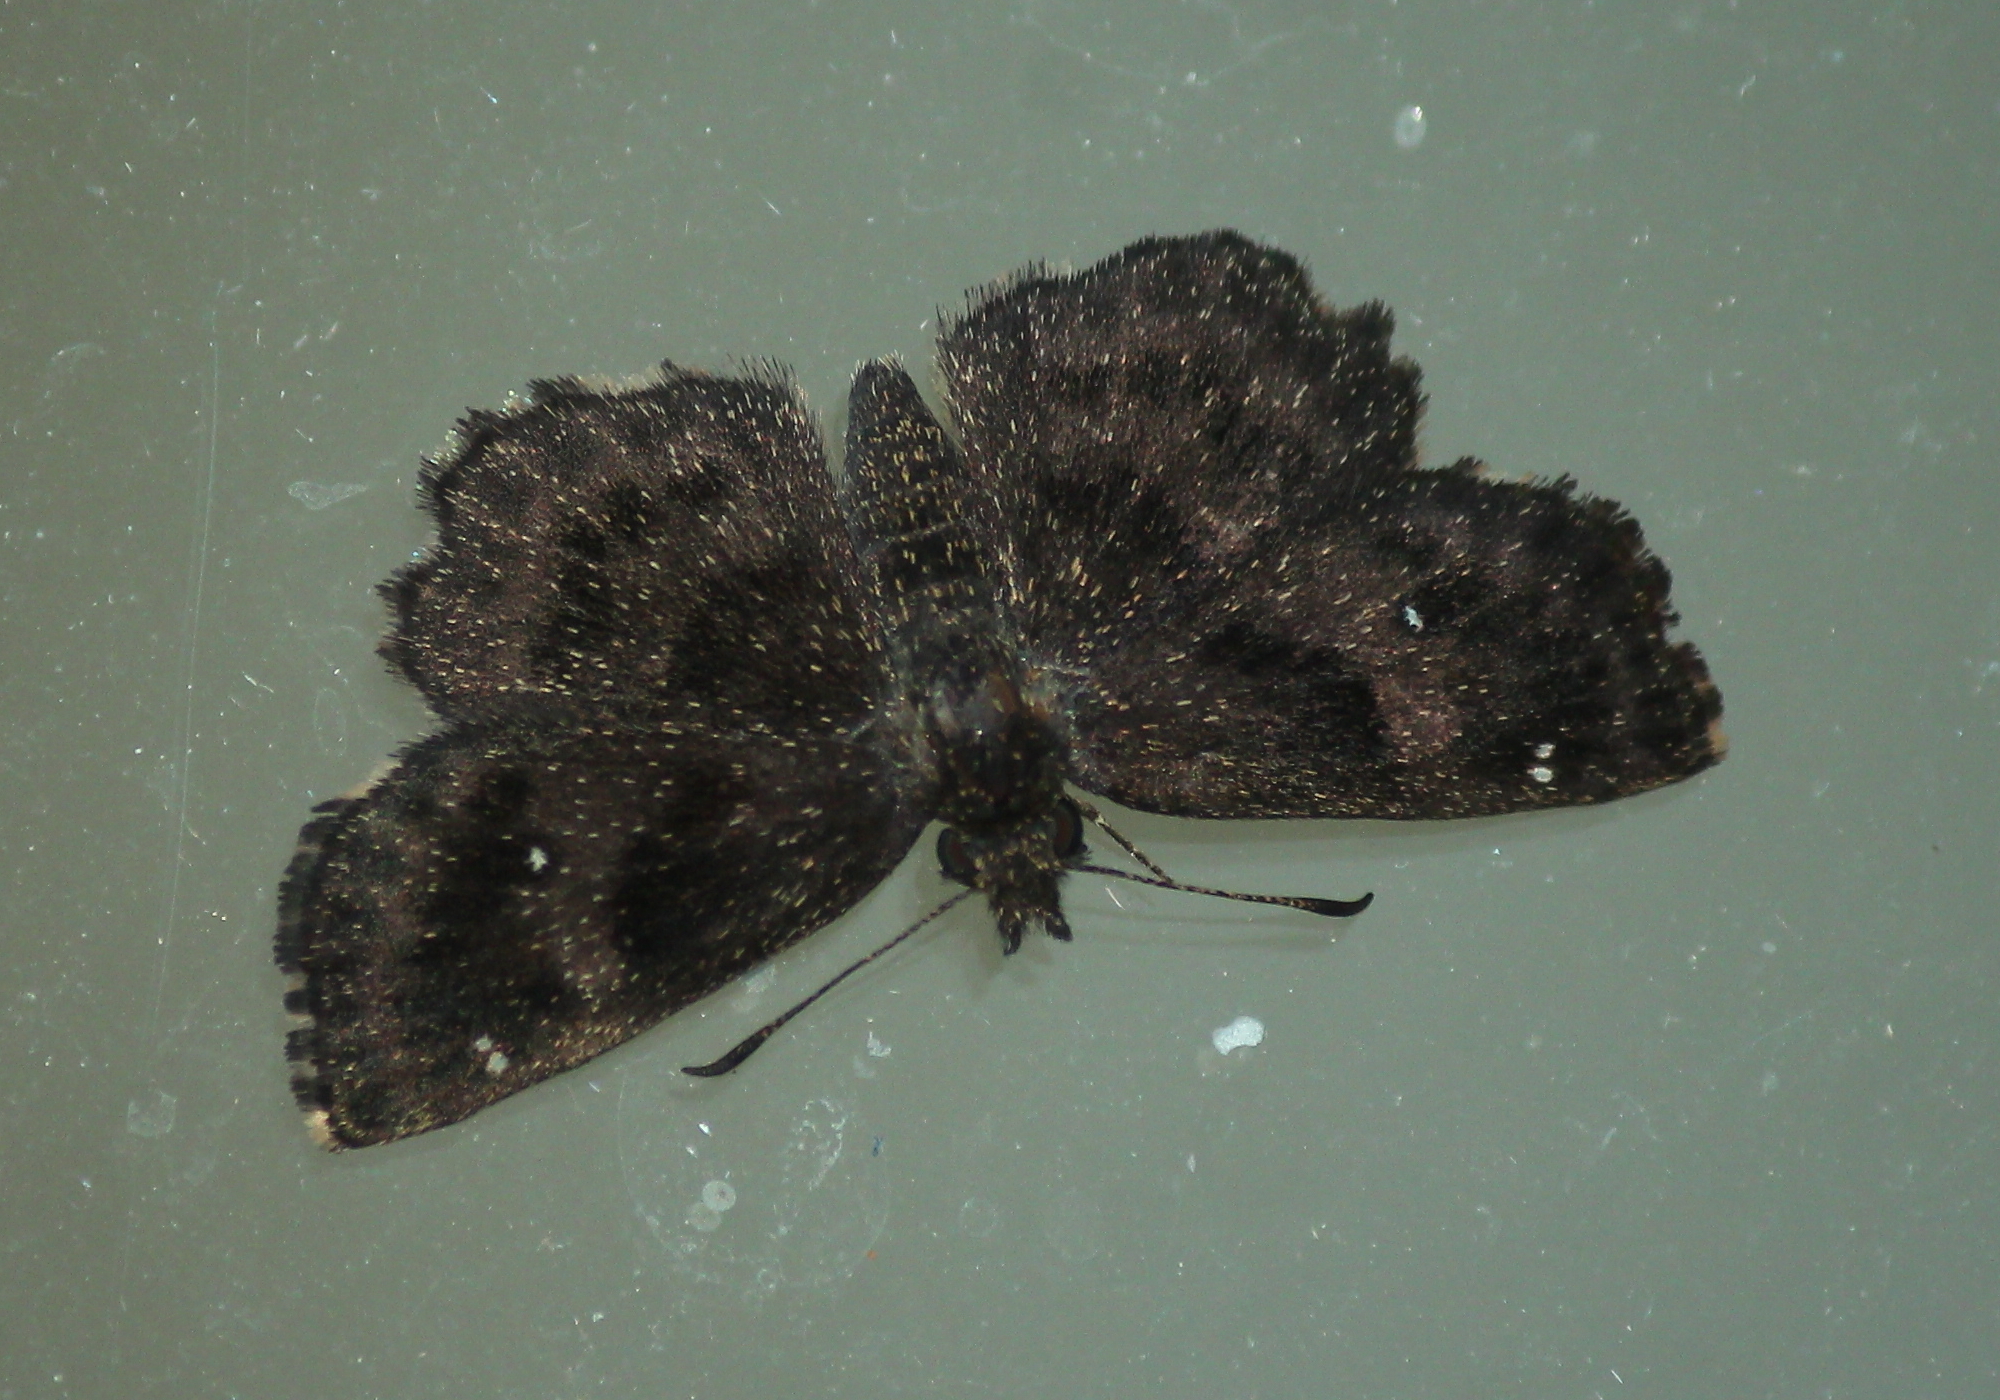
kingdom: Animalia
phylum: Arthropoda
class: Insecta
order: Lepidoptera
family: Hesperiidae
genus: Staphylus
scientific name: Staphylus mazans
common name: Mazans scallopwing
